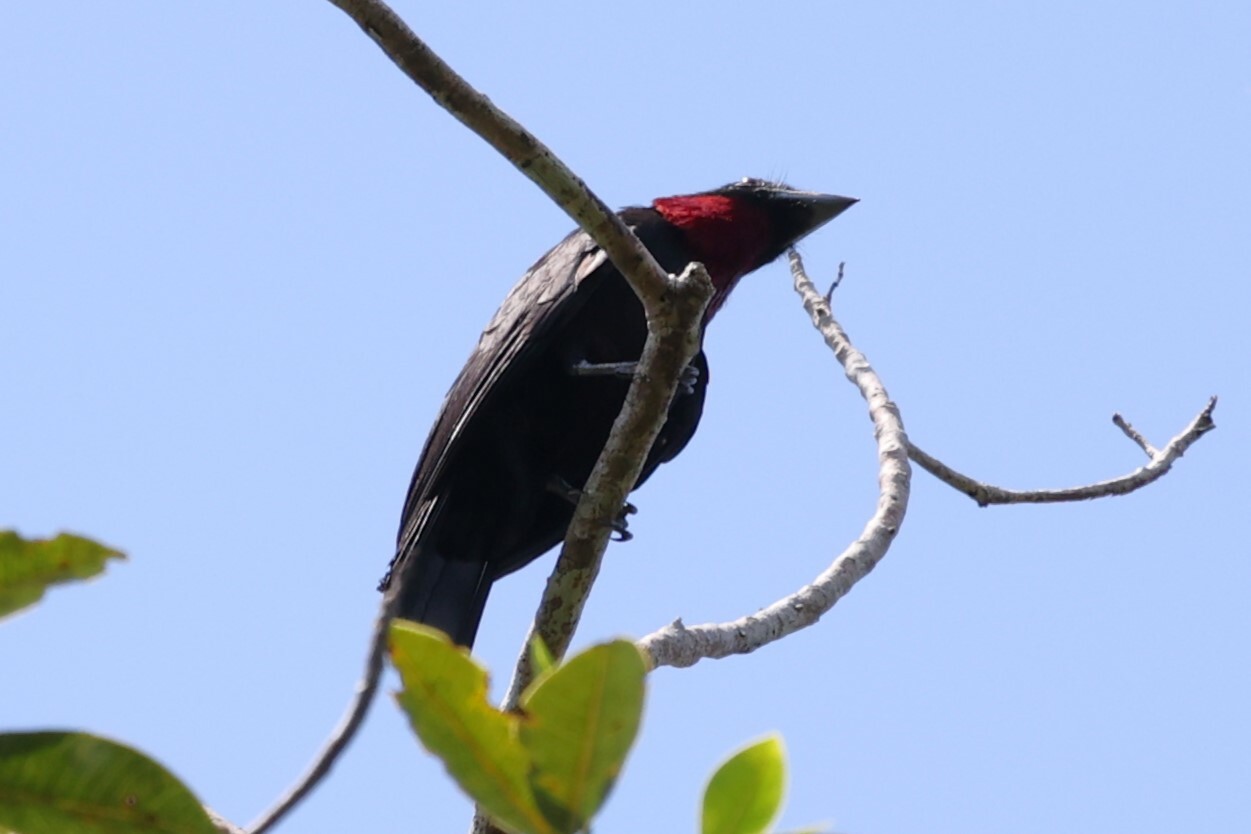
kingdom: Animalia
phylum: Chordata
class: Aves
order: Passeriformes
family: Cotingidae
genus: Querula
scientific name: Querula purpurata
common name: Purple-throated fruitcrow
